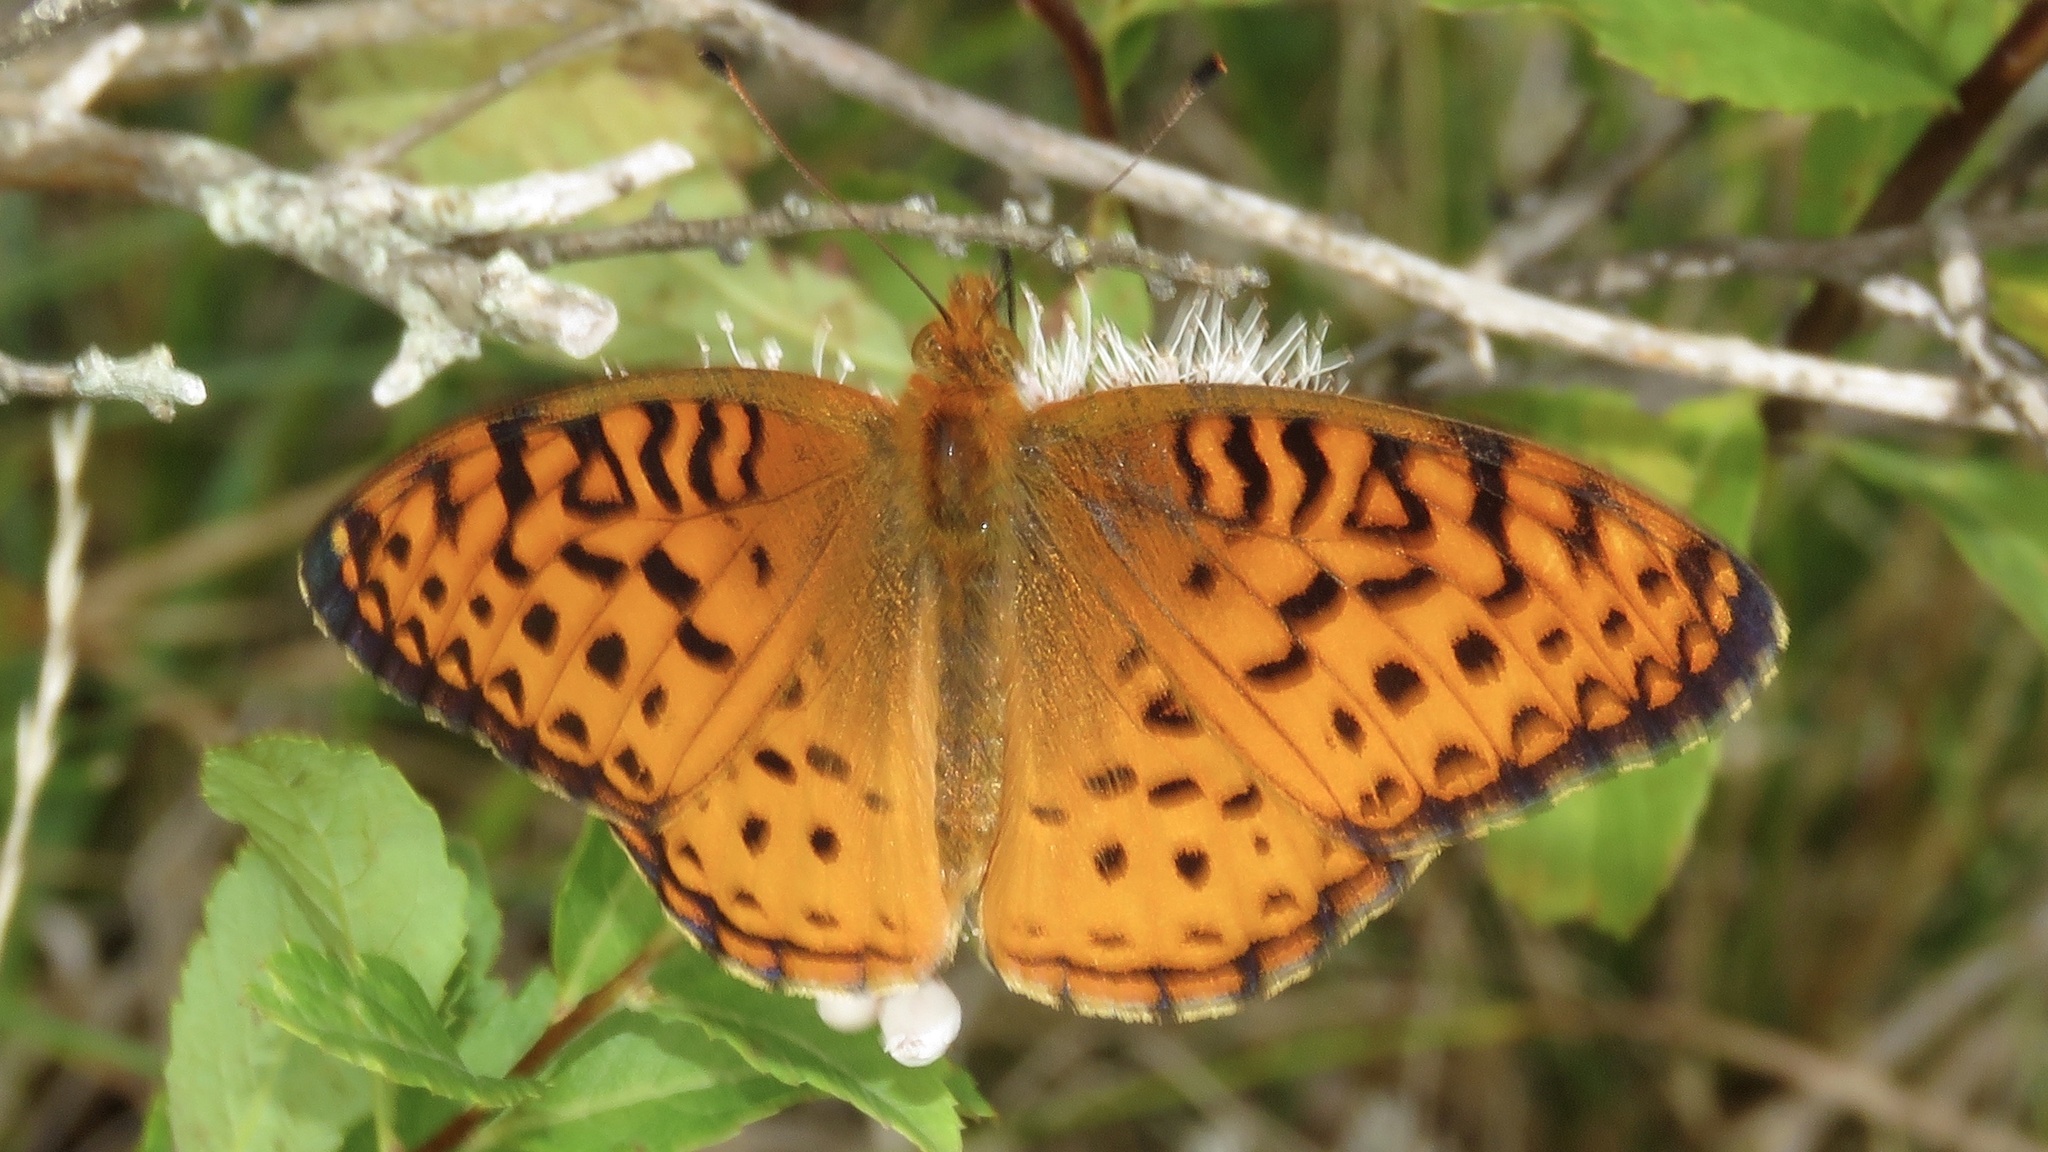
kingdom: Animalia
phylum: Arthropoda
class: Insecta
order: Lepidoptera
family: Nymphalidae
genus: Speyeria
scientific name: Speyeria aphrodite
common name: Aphrodite friitllary
